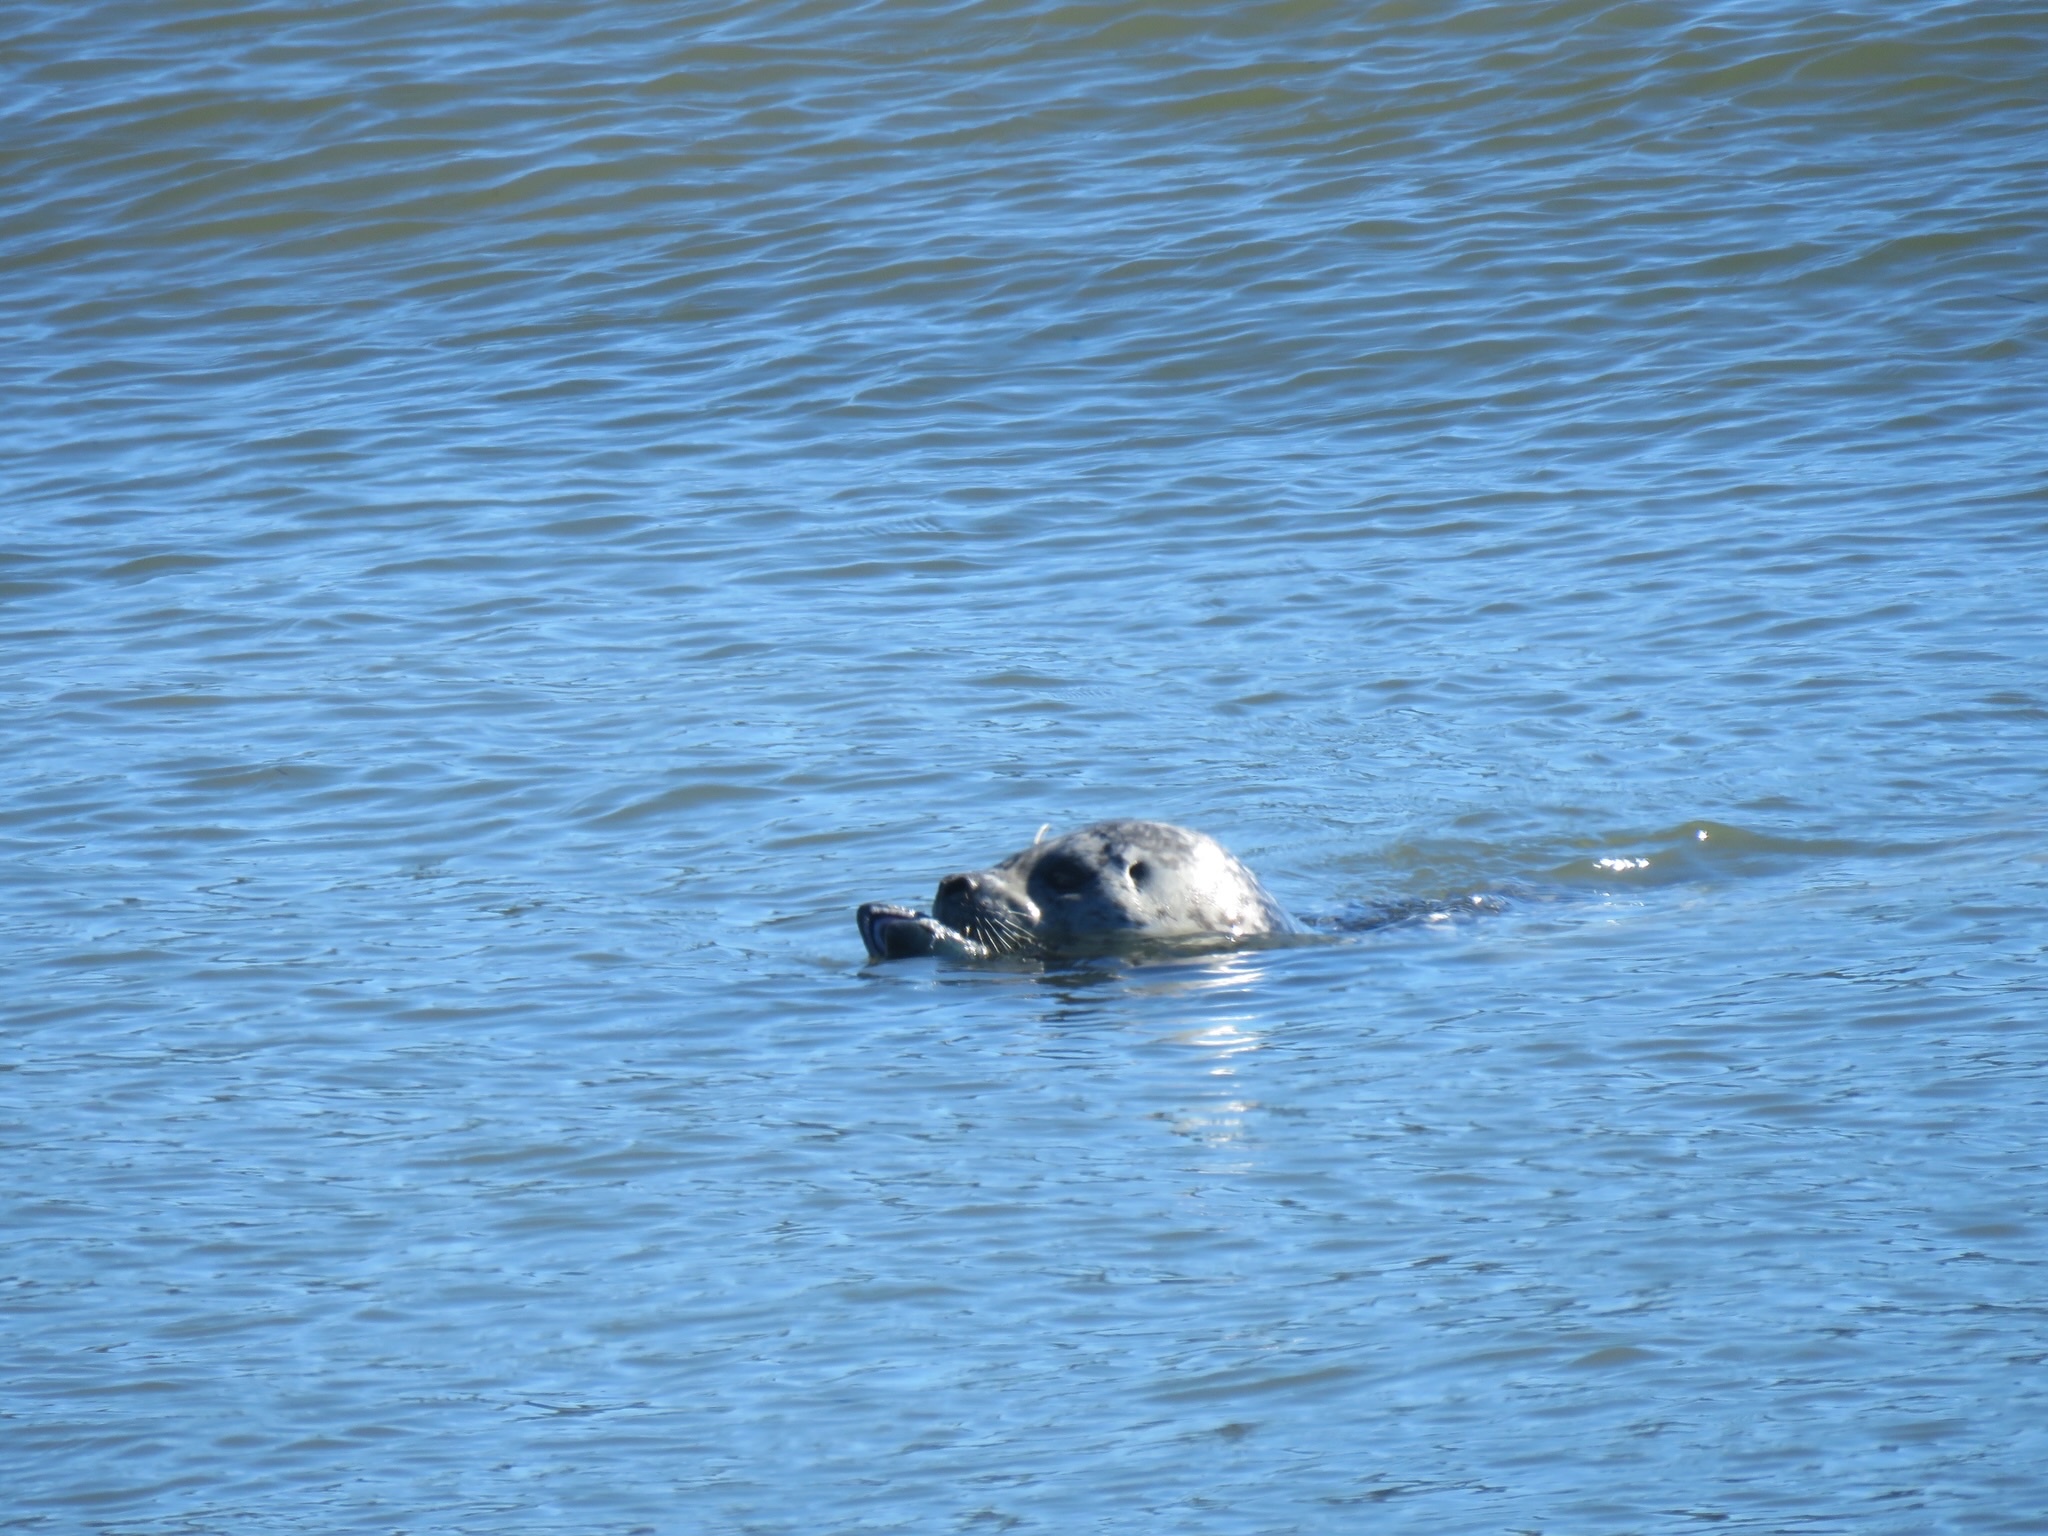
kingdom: Animalia
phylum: Chordata
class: Mammalia
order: Carnivora
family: Phocidae
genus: Phoca
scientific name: Phoca vitulina
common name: Harbor seal
